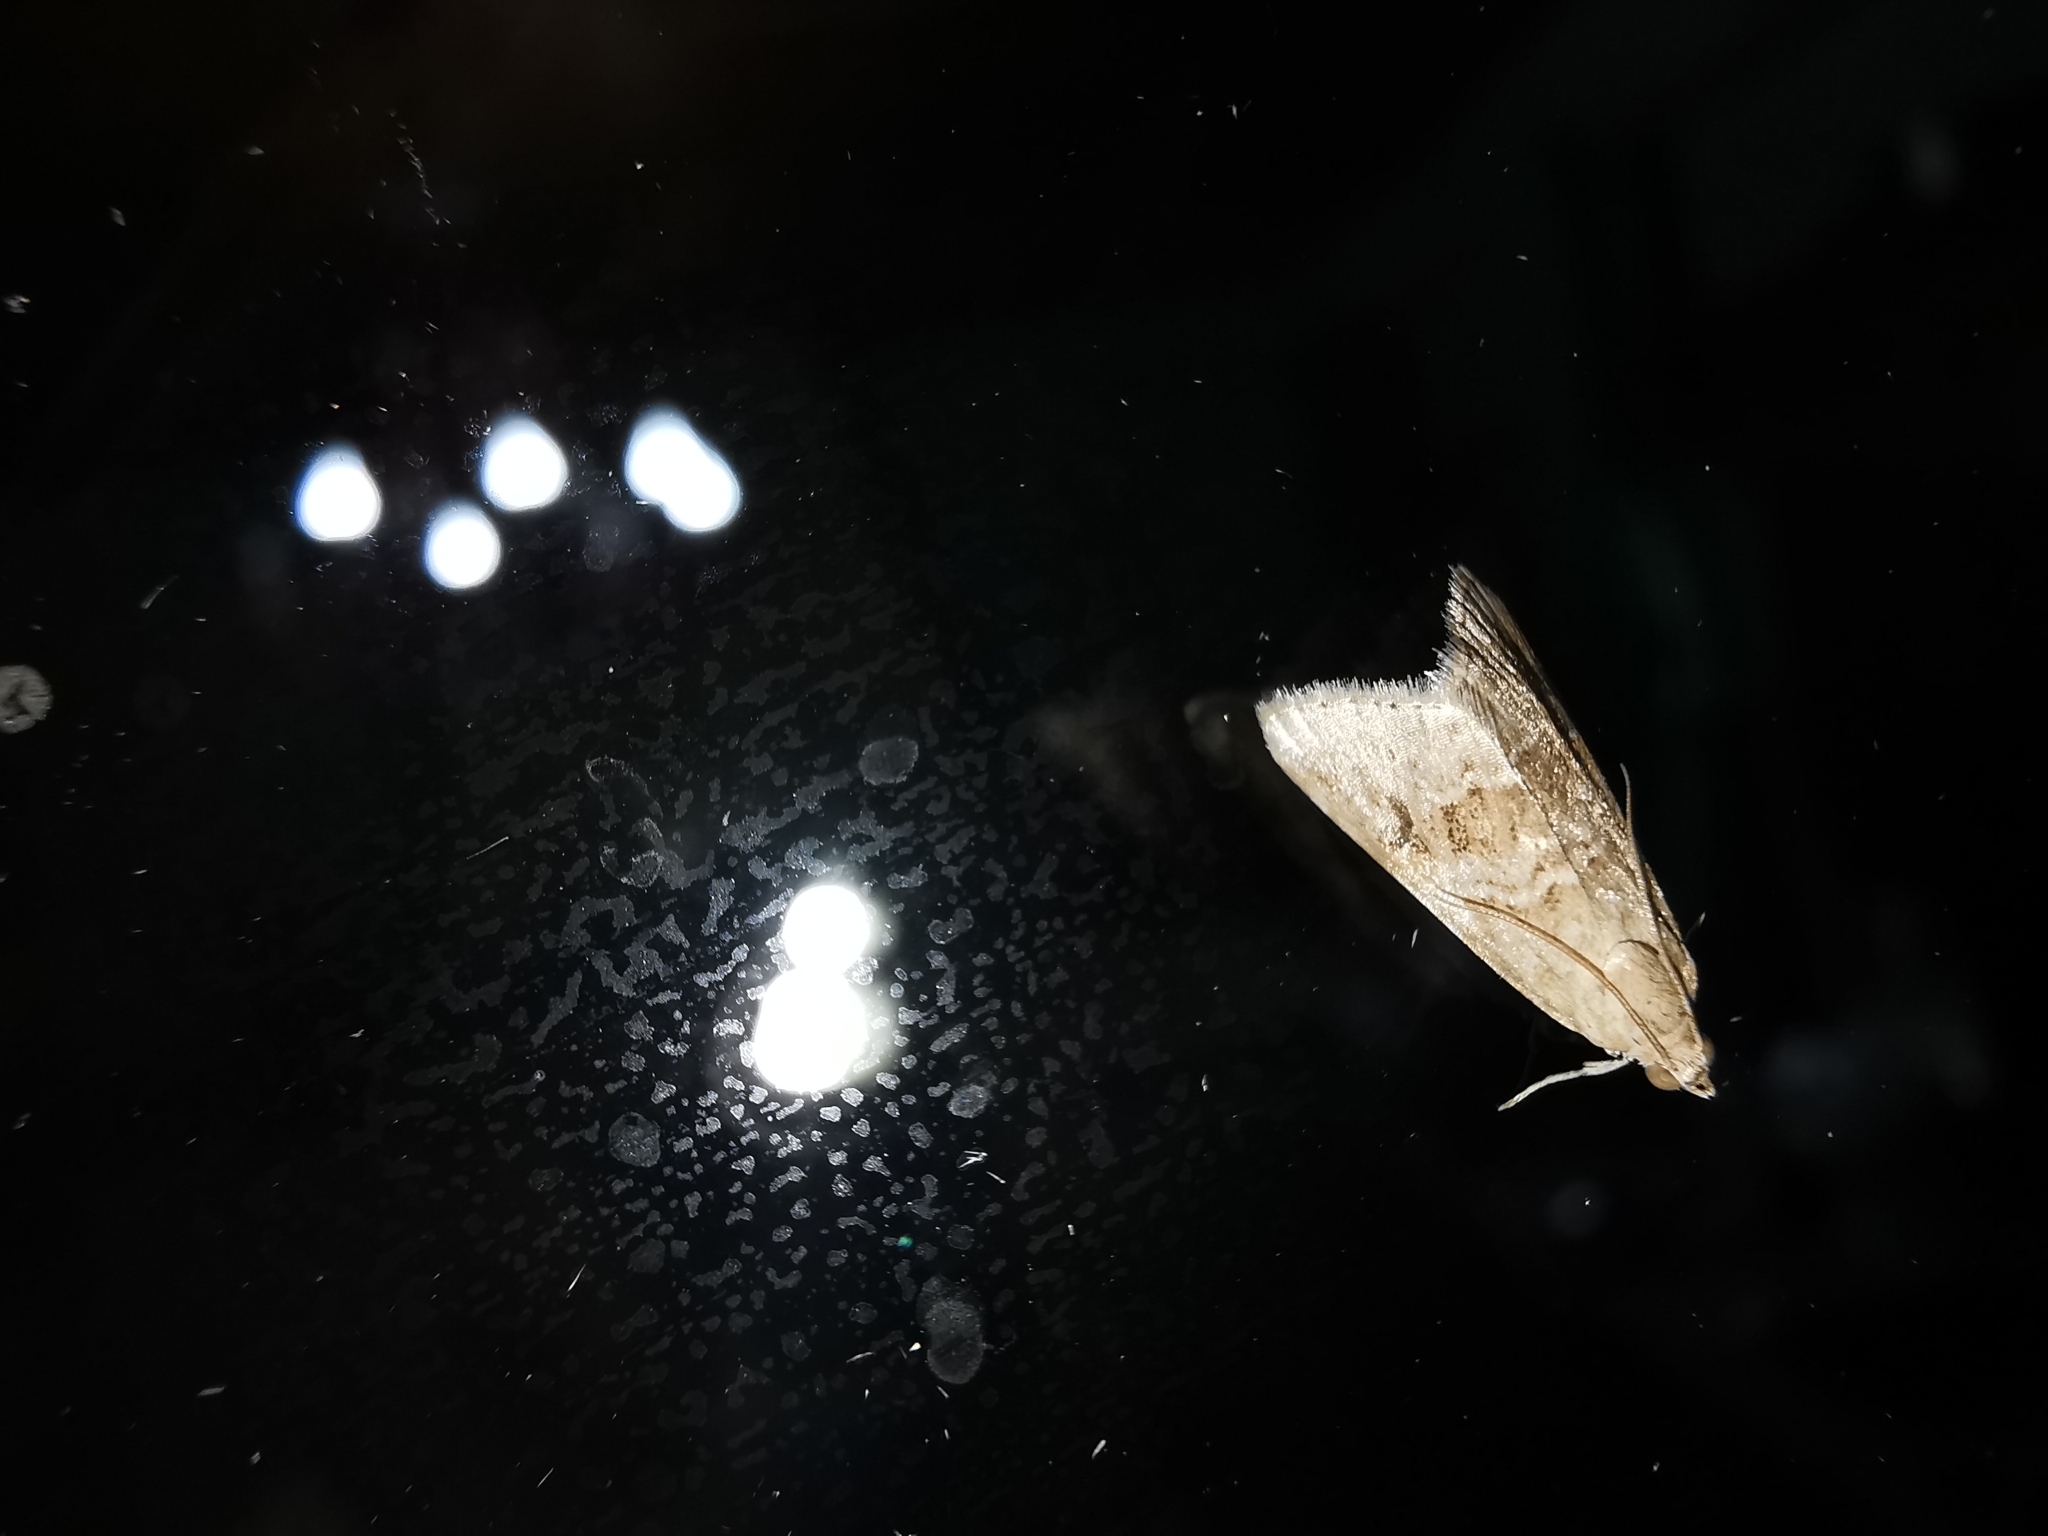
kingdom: Animalia
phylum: Arthropoda
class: Insecta
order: Lepidoptera
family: Crambidae
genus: Hellula
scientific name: Hellula undalis
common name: Cabbage webworm
